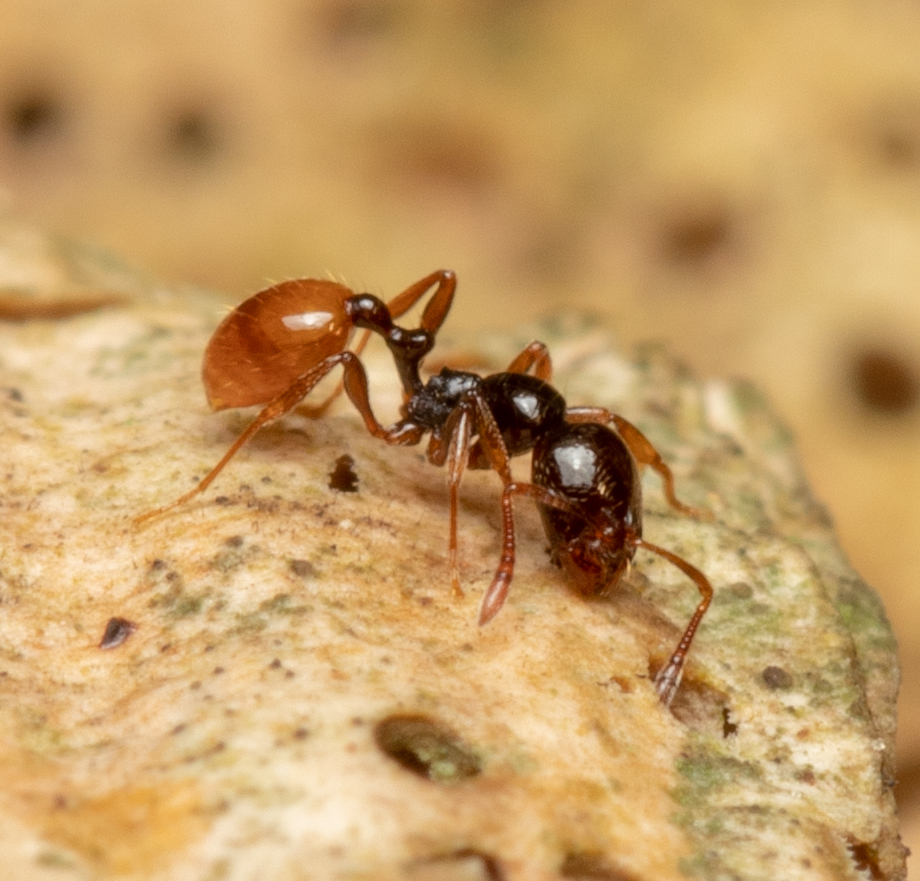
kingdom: Animalia
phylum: Arthropoda
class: Insecta
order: Hymenoptera
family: Formicidae
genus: Chelaner
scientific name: Chelaner
